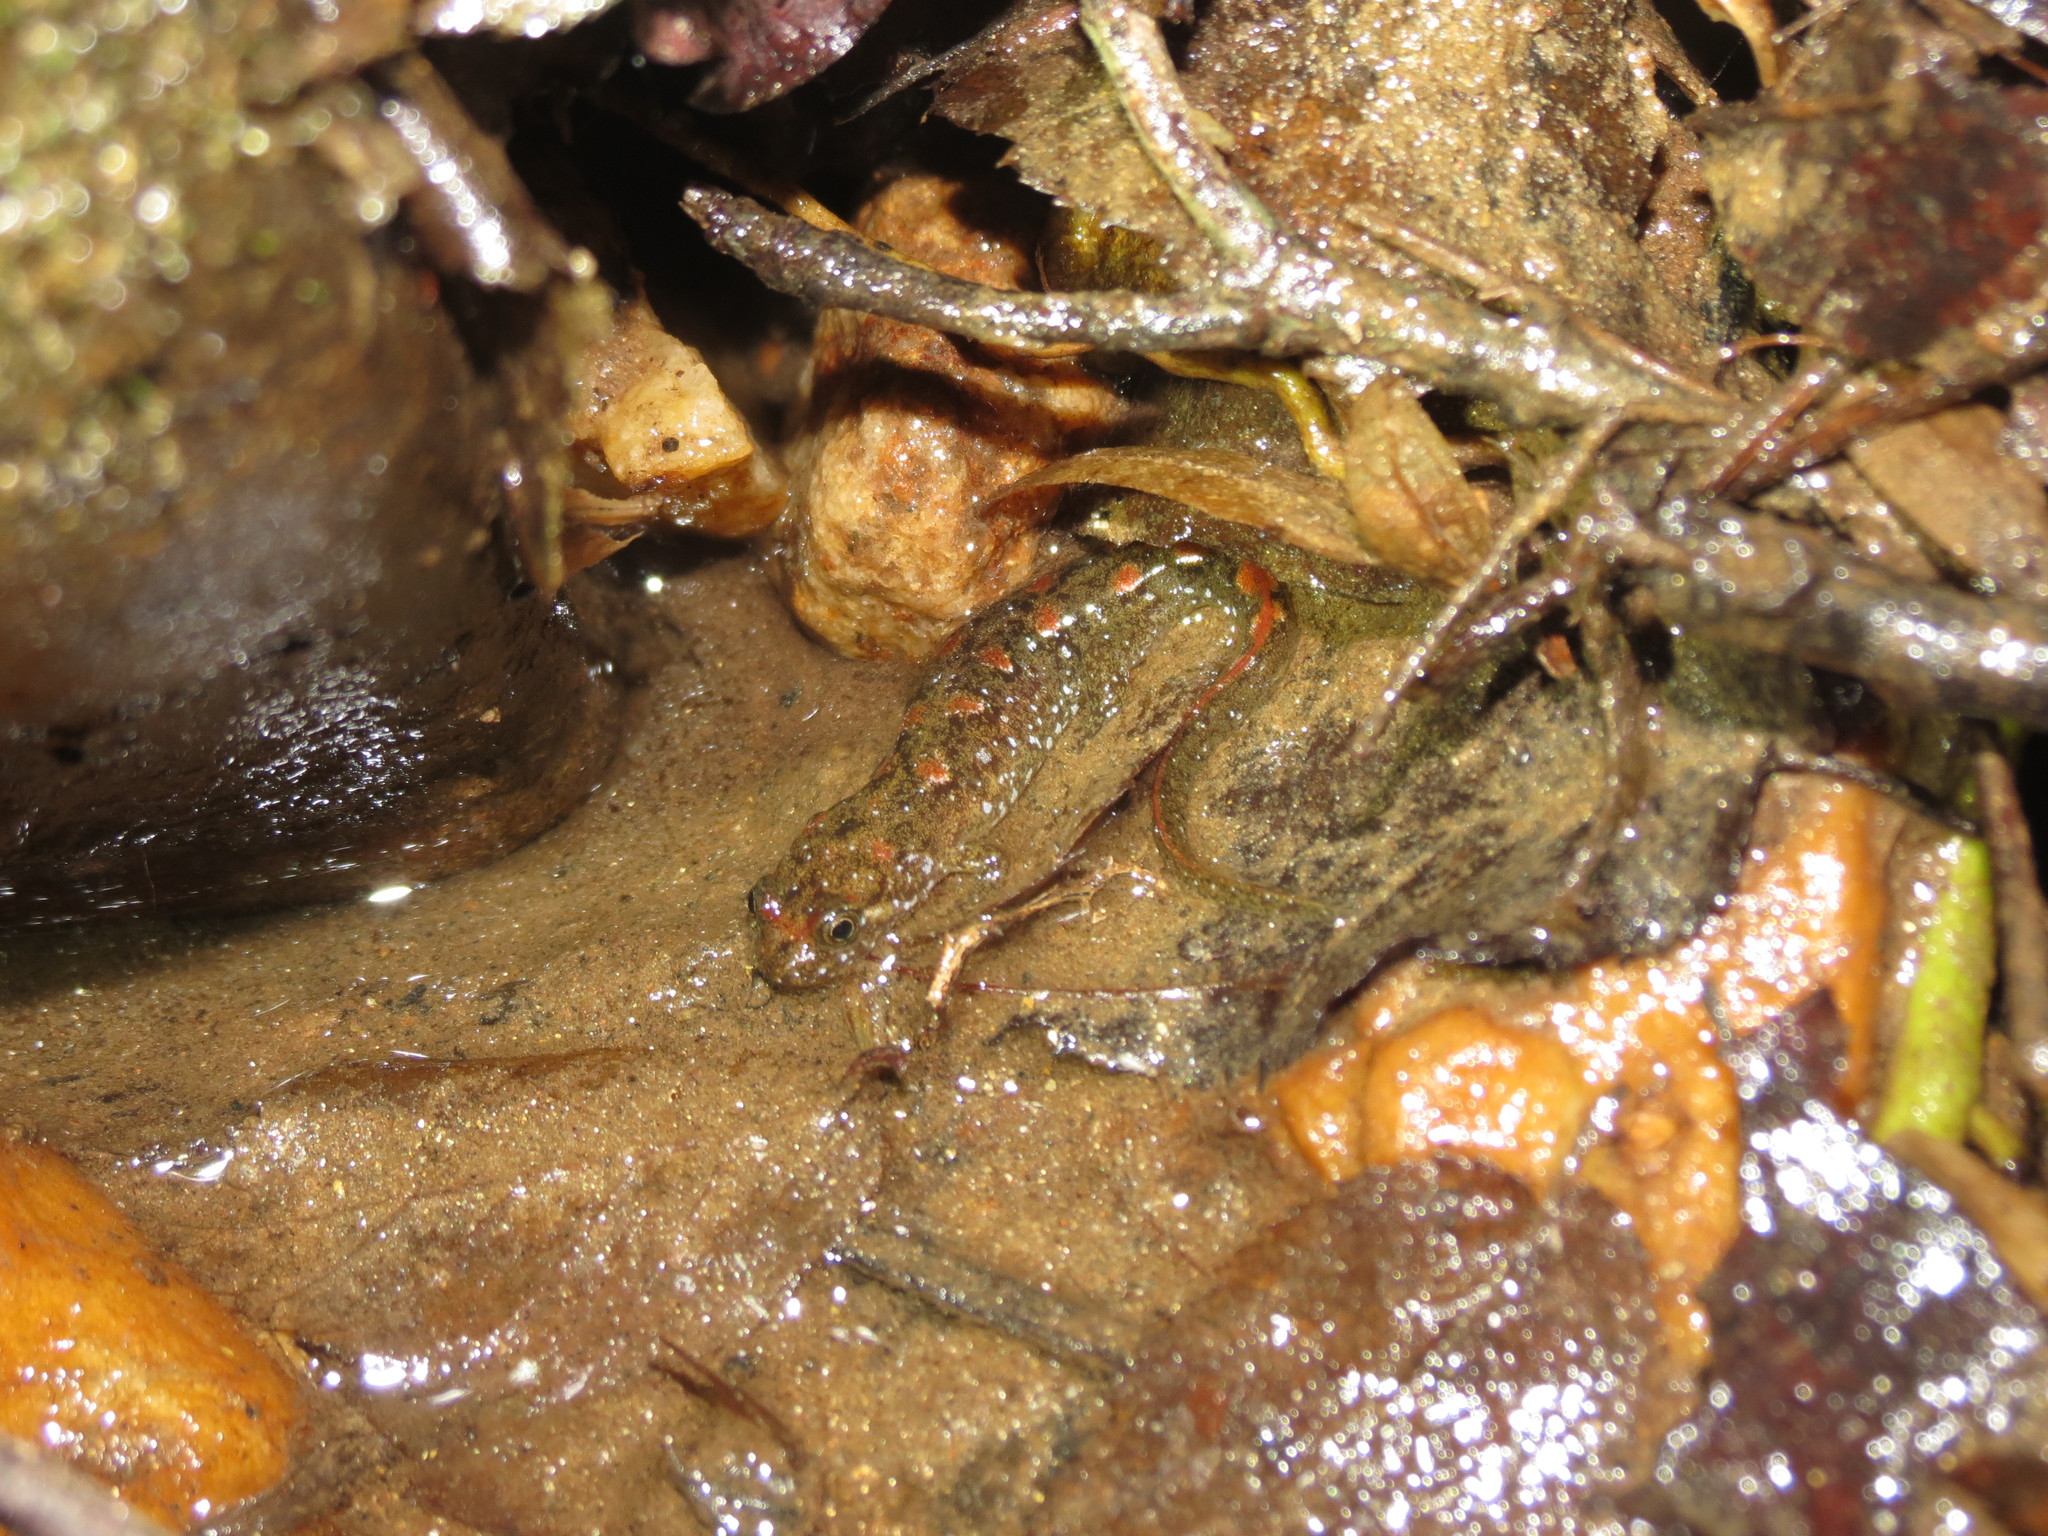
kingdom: Animalia
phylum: Chordata
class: Amphibia
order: Caudata
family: Plethodontidae
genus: Desmognathus
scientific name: Desmognathus monticola
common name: Seal salamander
